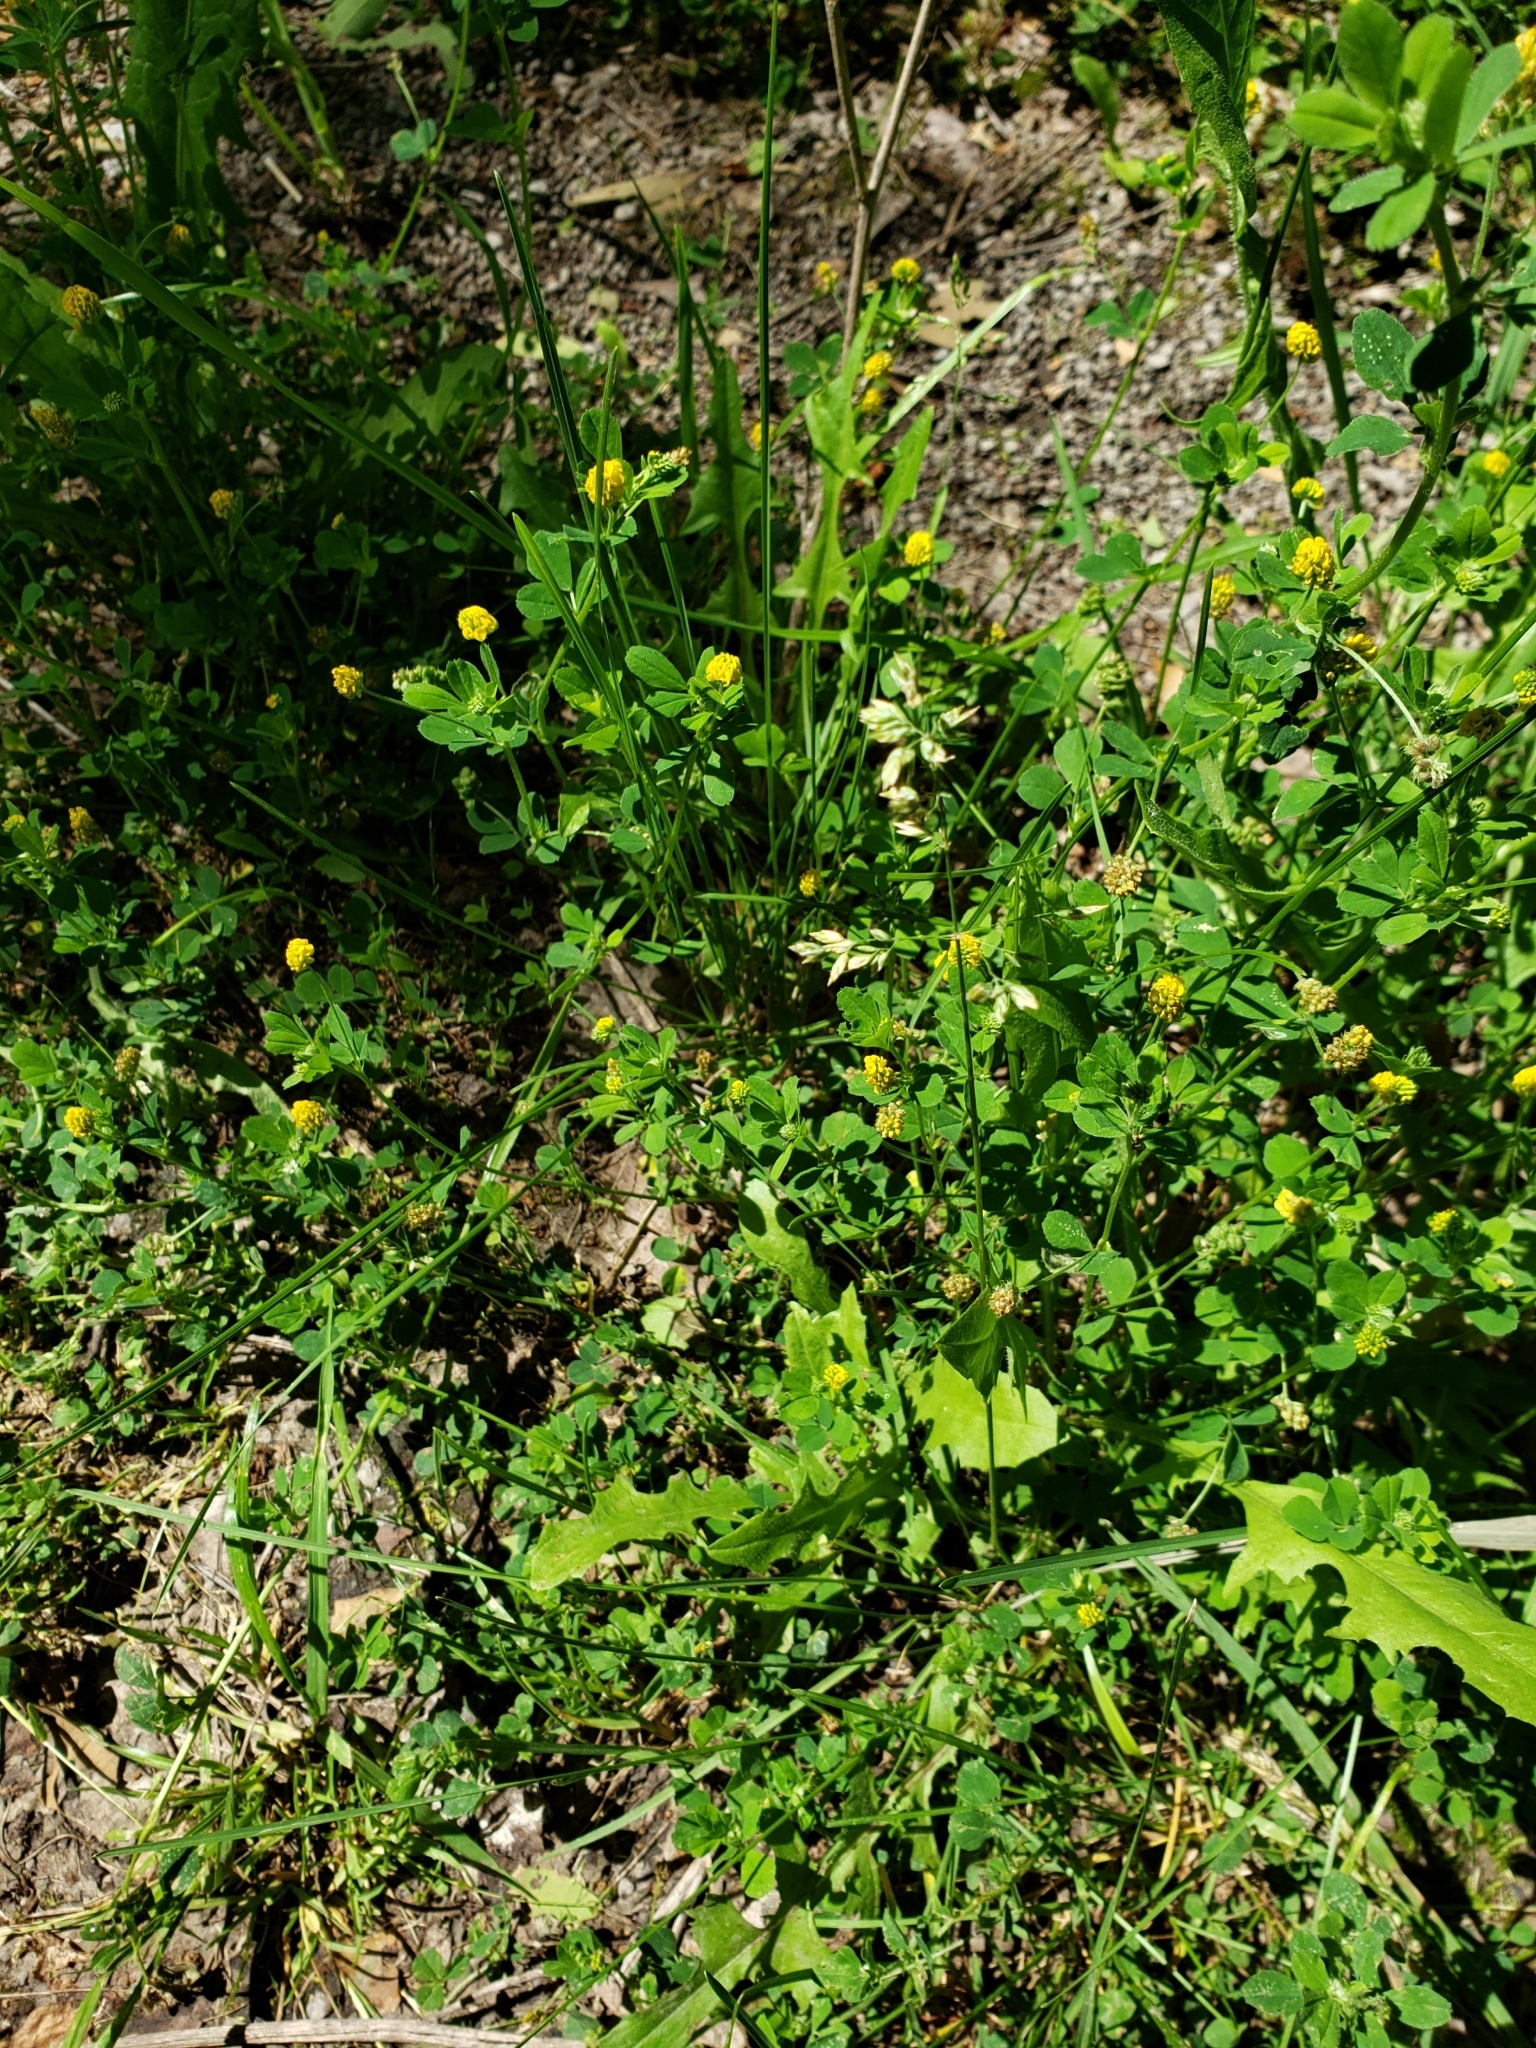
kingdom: Plantae
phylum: Tracheophyta
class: Magnoliopsida
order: Fabales
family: Fabaceae
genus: Medicago
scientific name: Medicago lupulina
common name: Black medick
